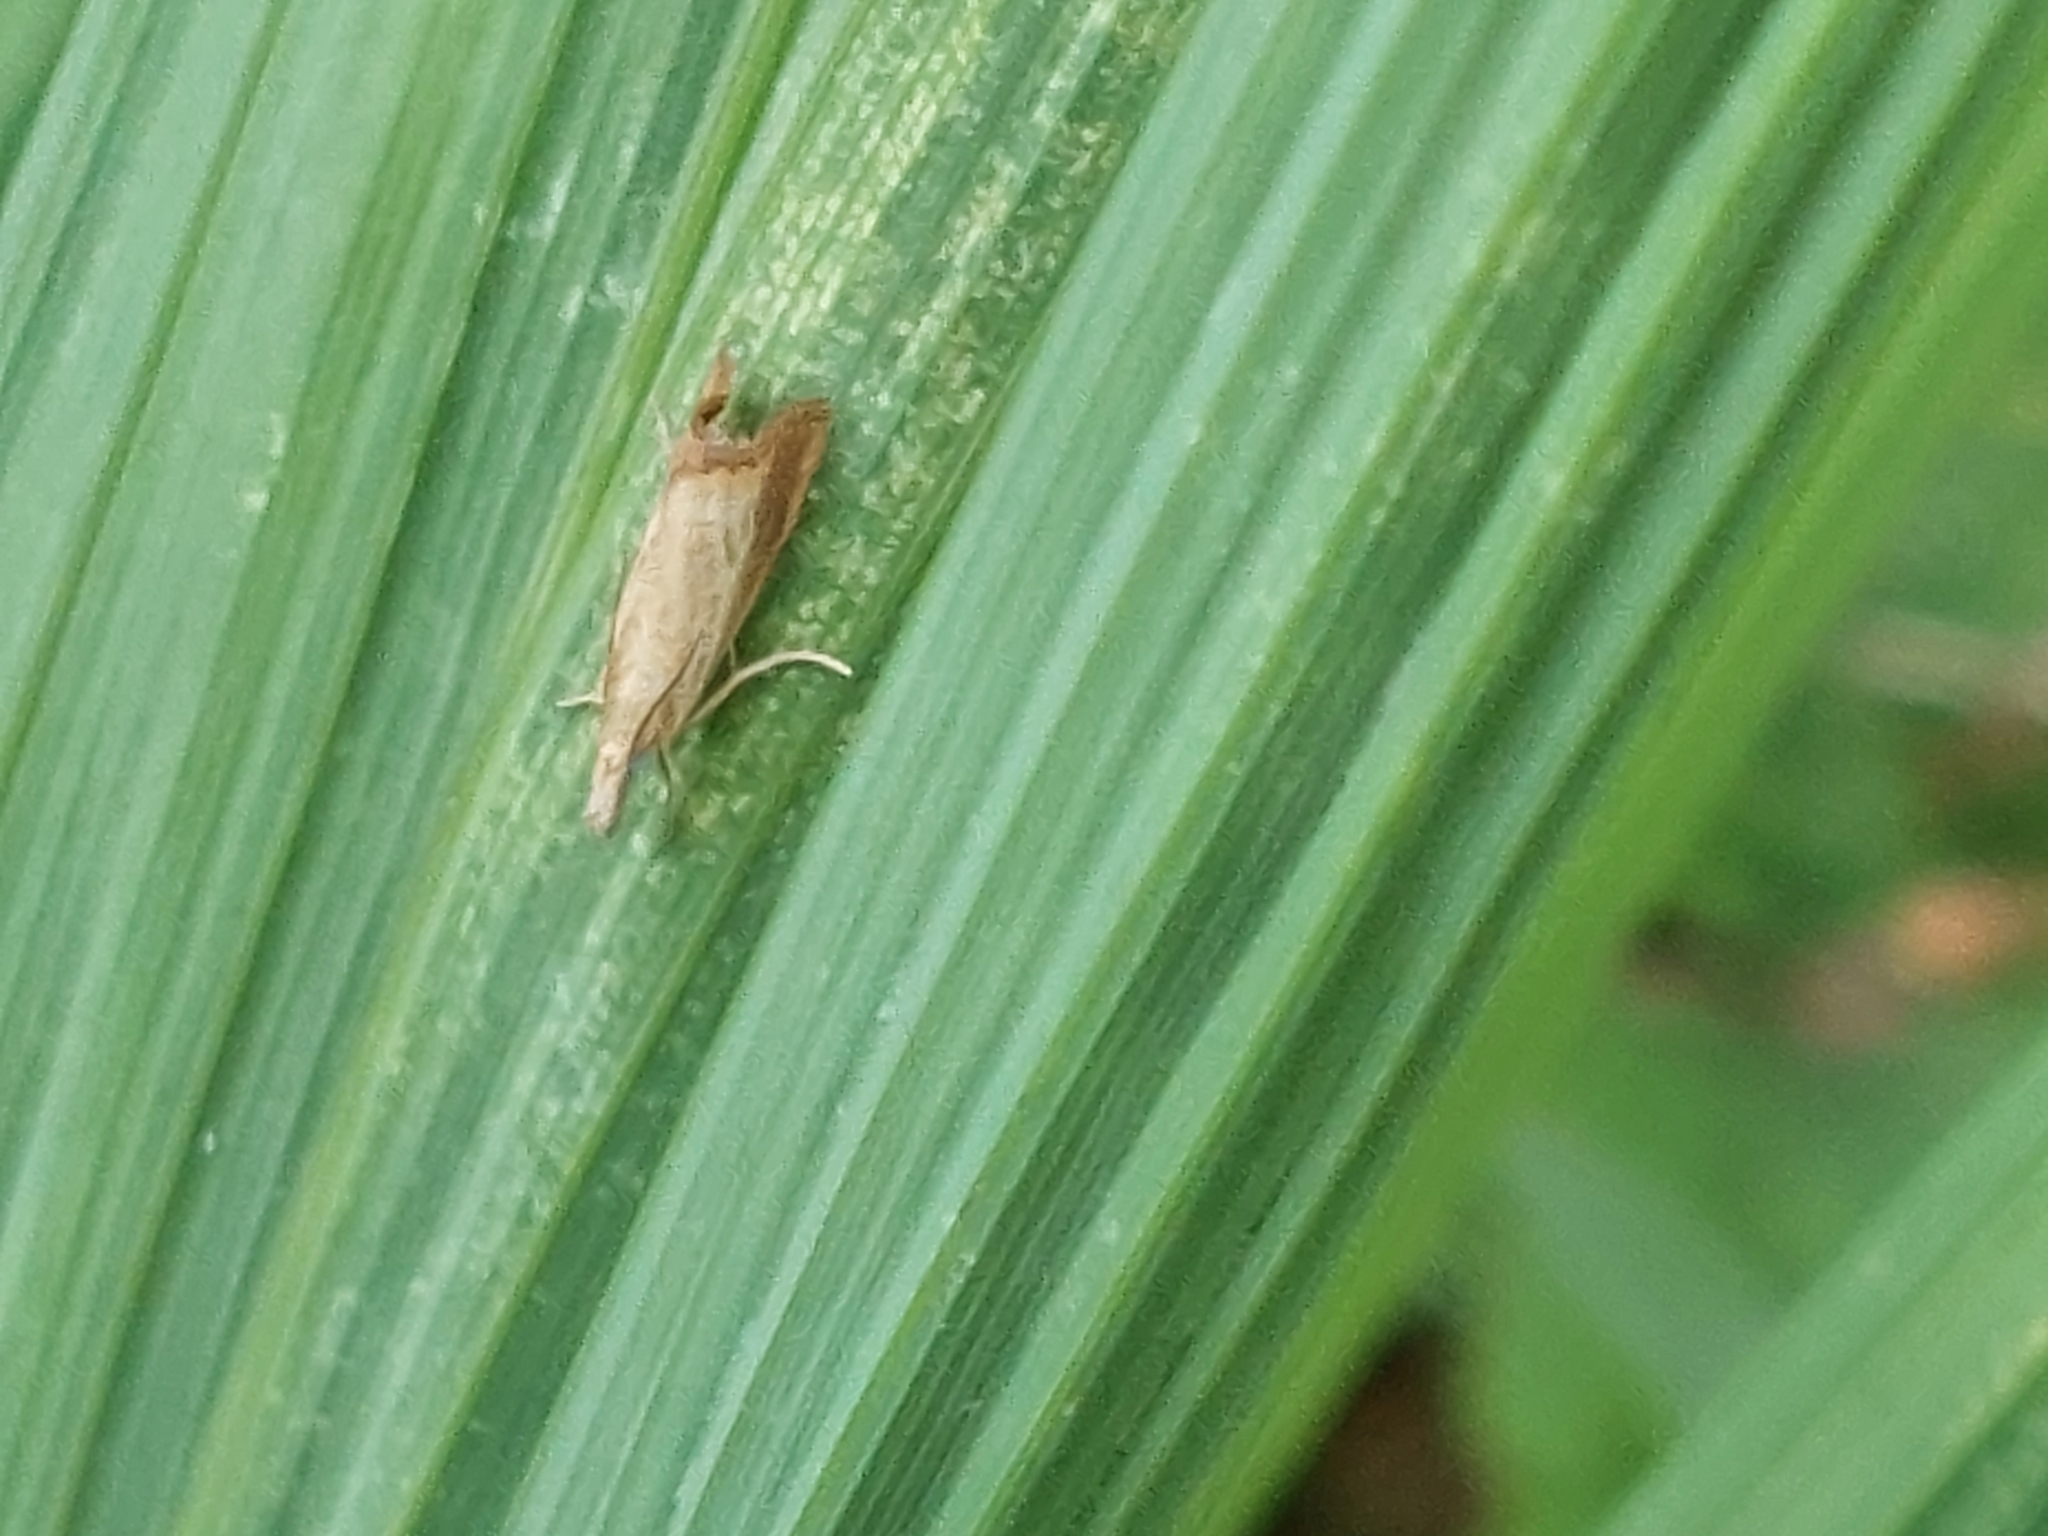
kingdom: Animalia
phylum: Arthropoda
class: Insecta
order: Lepidoptera
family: Crambidae
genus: Agriphila
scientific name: Agriphila straminella
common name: Straw grass-veneer
